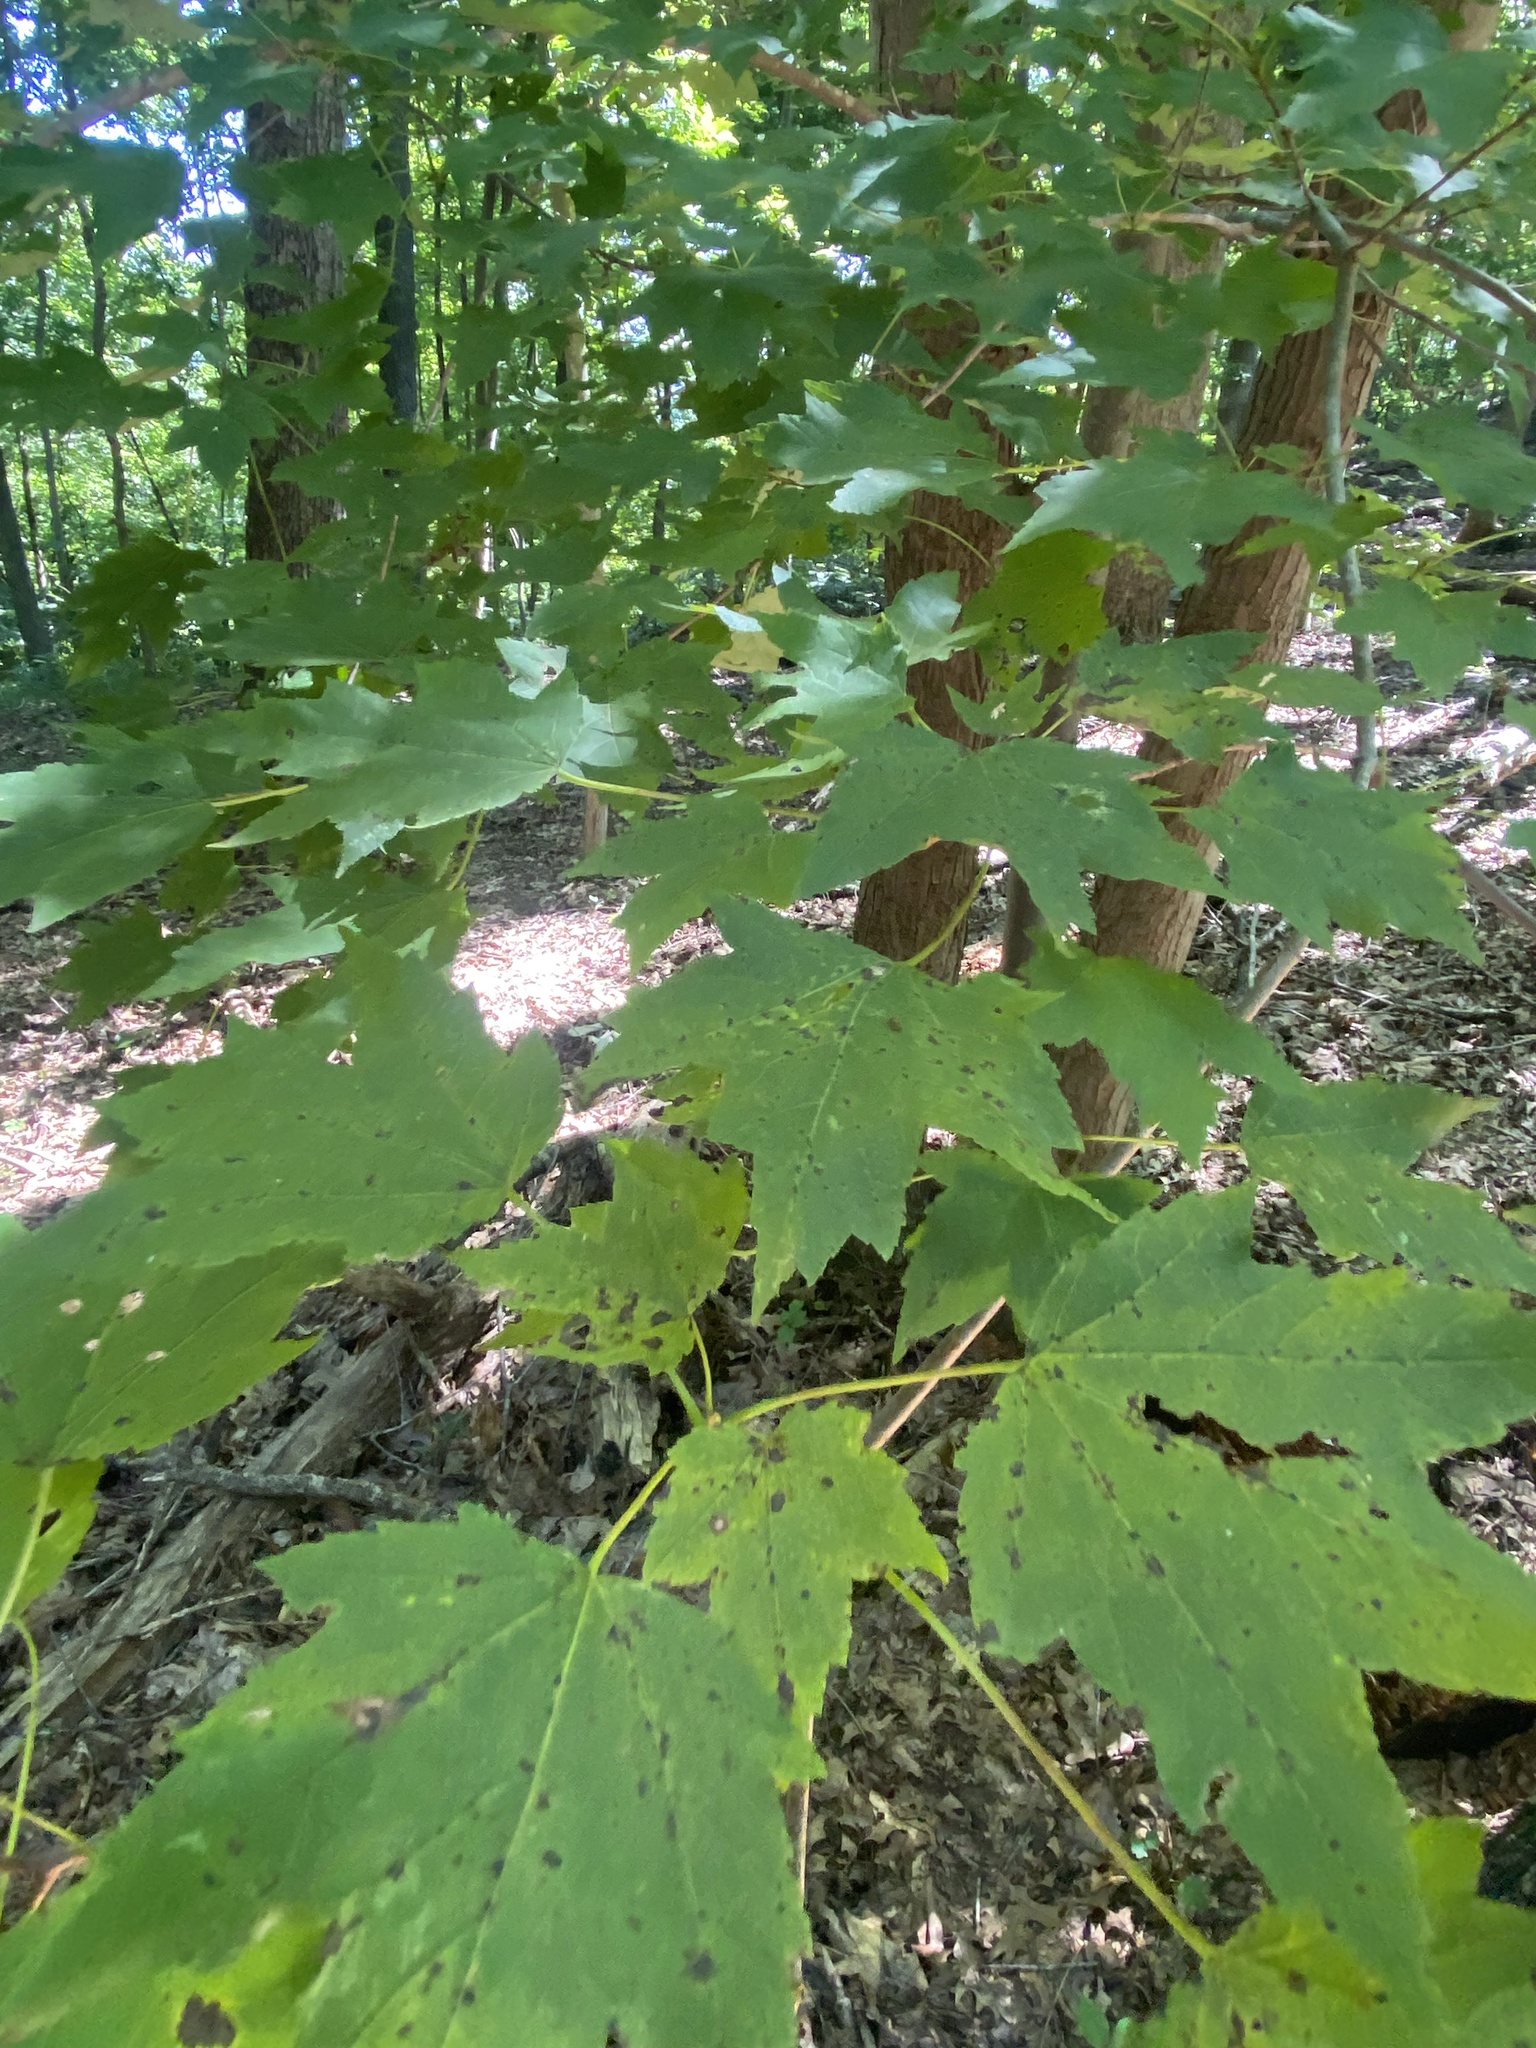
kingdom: Plantae
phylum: Tracheophyta
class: Magnoliopsida
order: Sapindales
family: Sapindaceae
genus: Acer
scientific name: Acer rubrum
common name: Red maple
